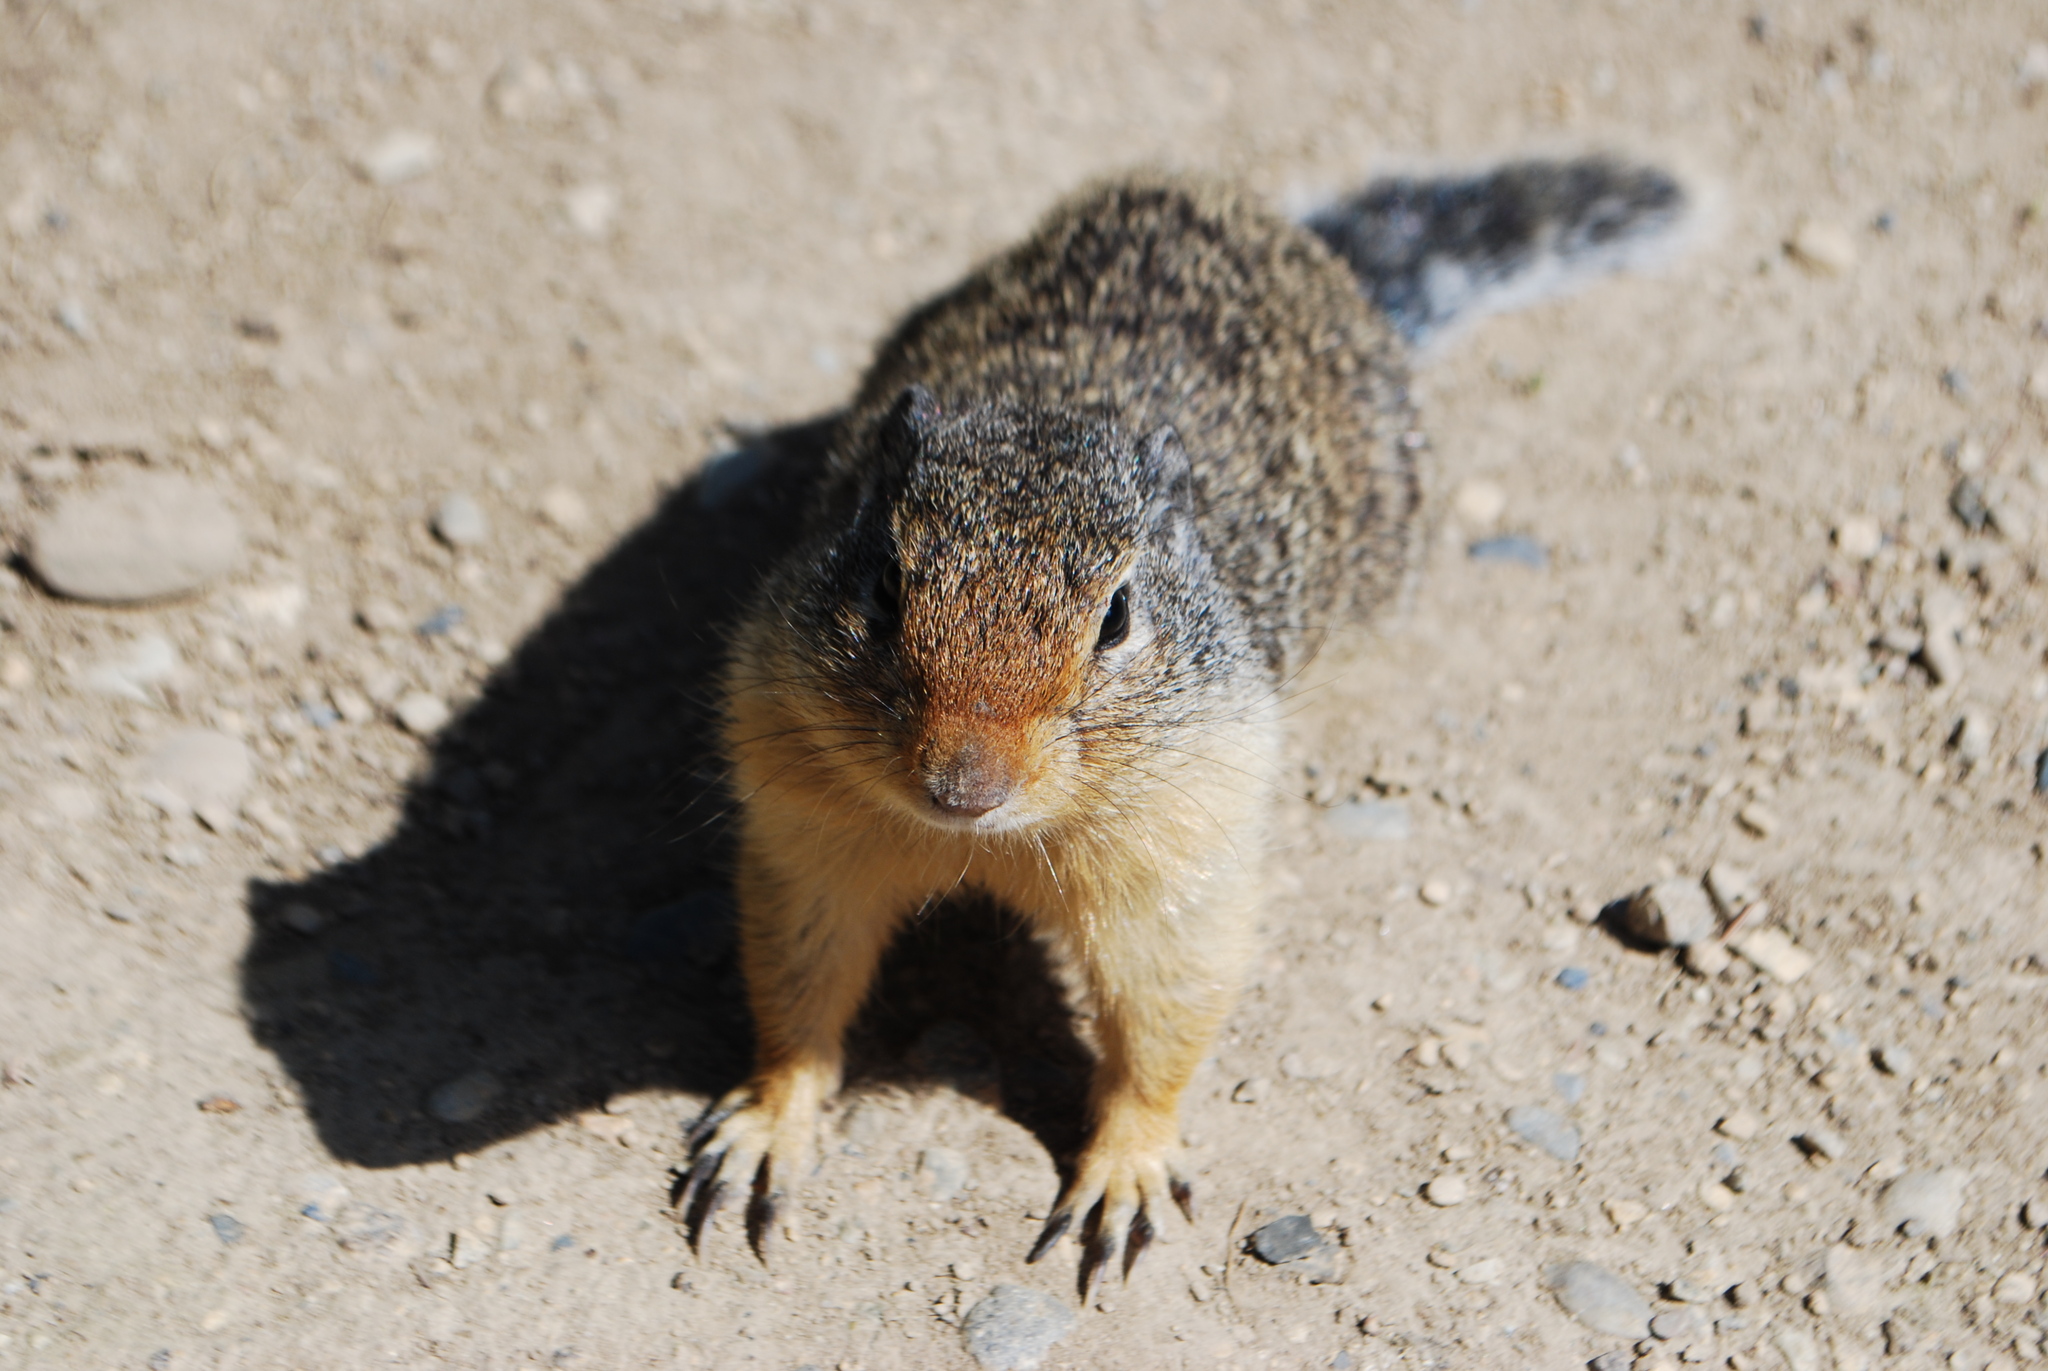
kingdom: Animalia
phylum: Chordata
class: Mammalia
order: Rodentia
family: Sciuridae
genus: Urocitellus
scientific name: Urocitellus columbianus
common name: Columbian ground squirrel
